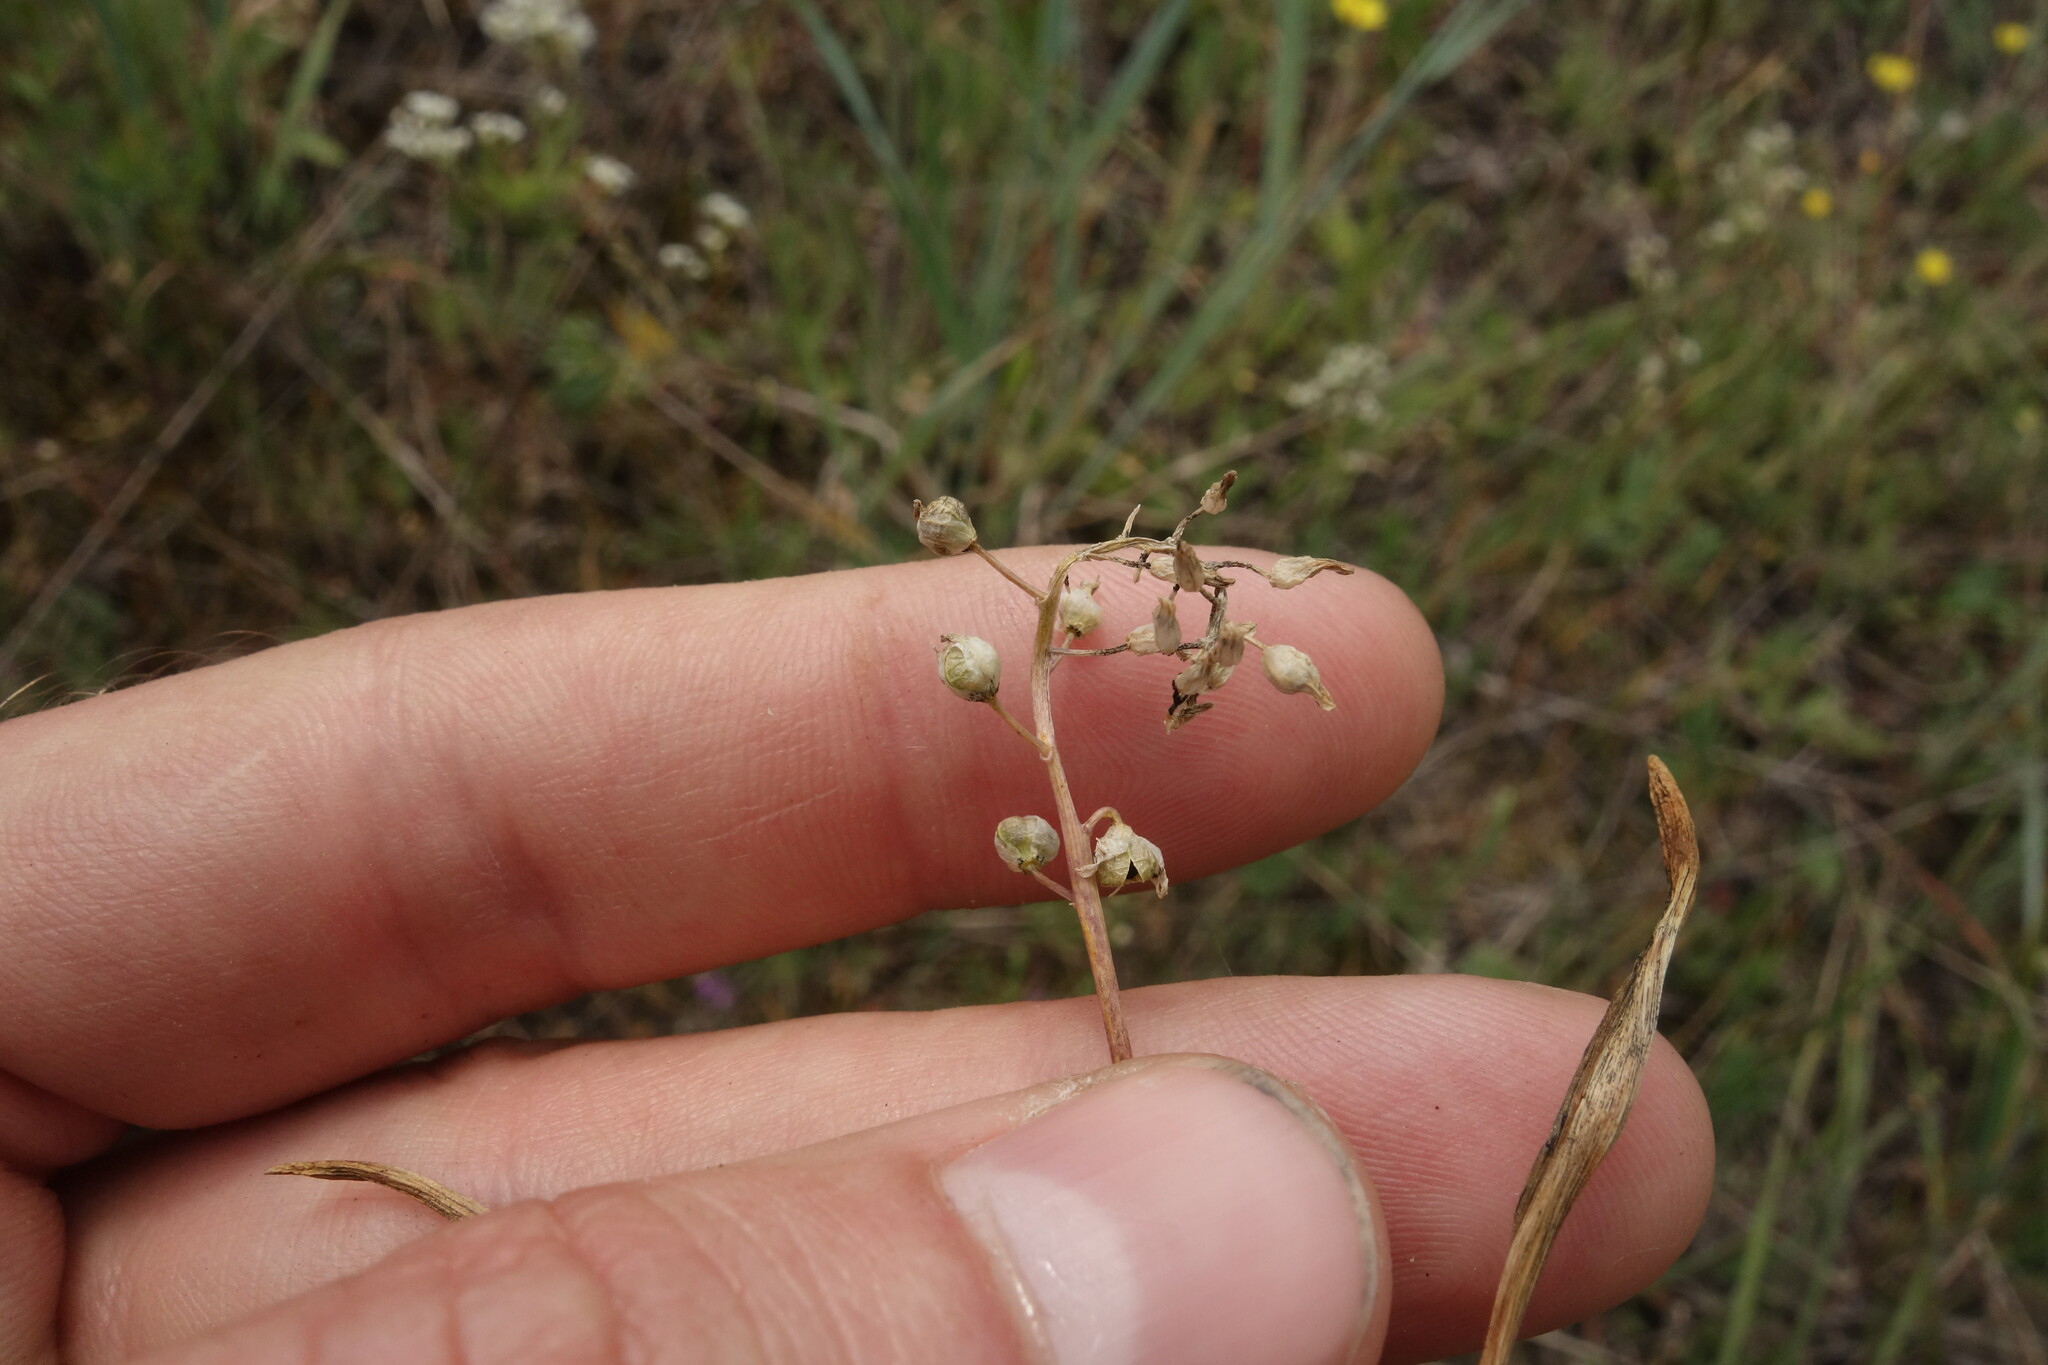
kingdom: Plantae
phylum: Tracheophyta
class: Liliopsida
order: Asparagales
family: Asparagaceae
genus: Hyacinthella
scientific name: Hyacinthella leucophaea
